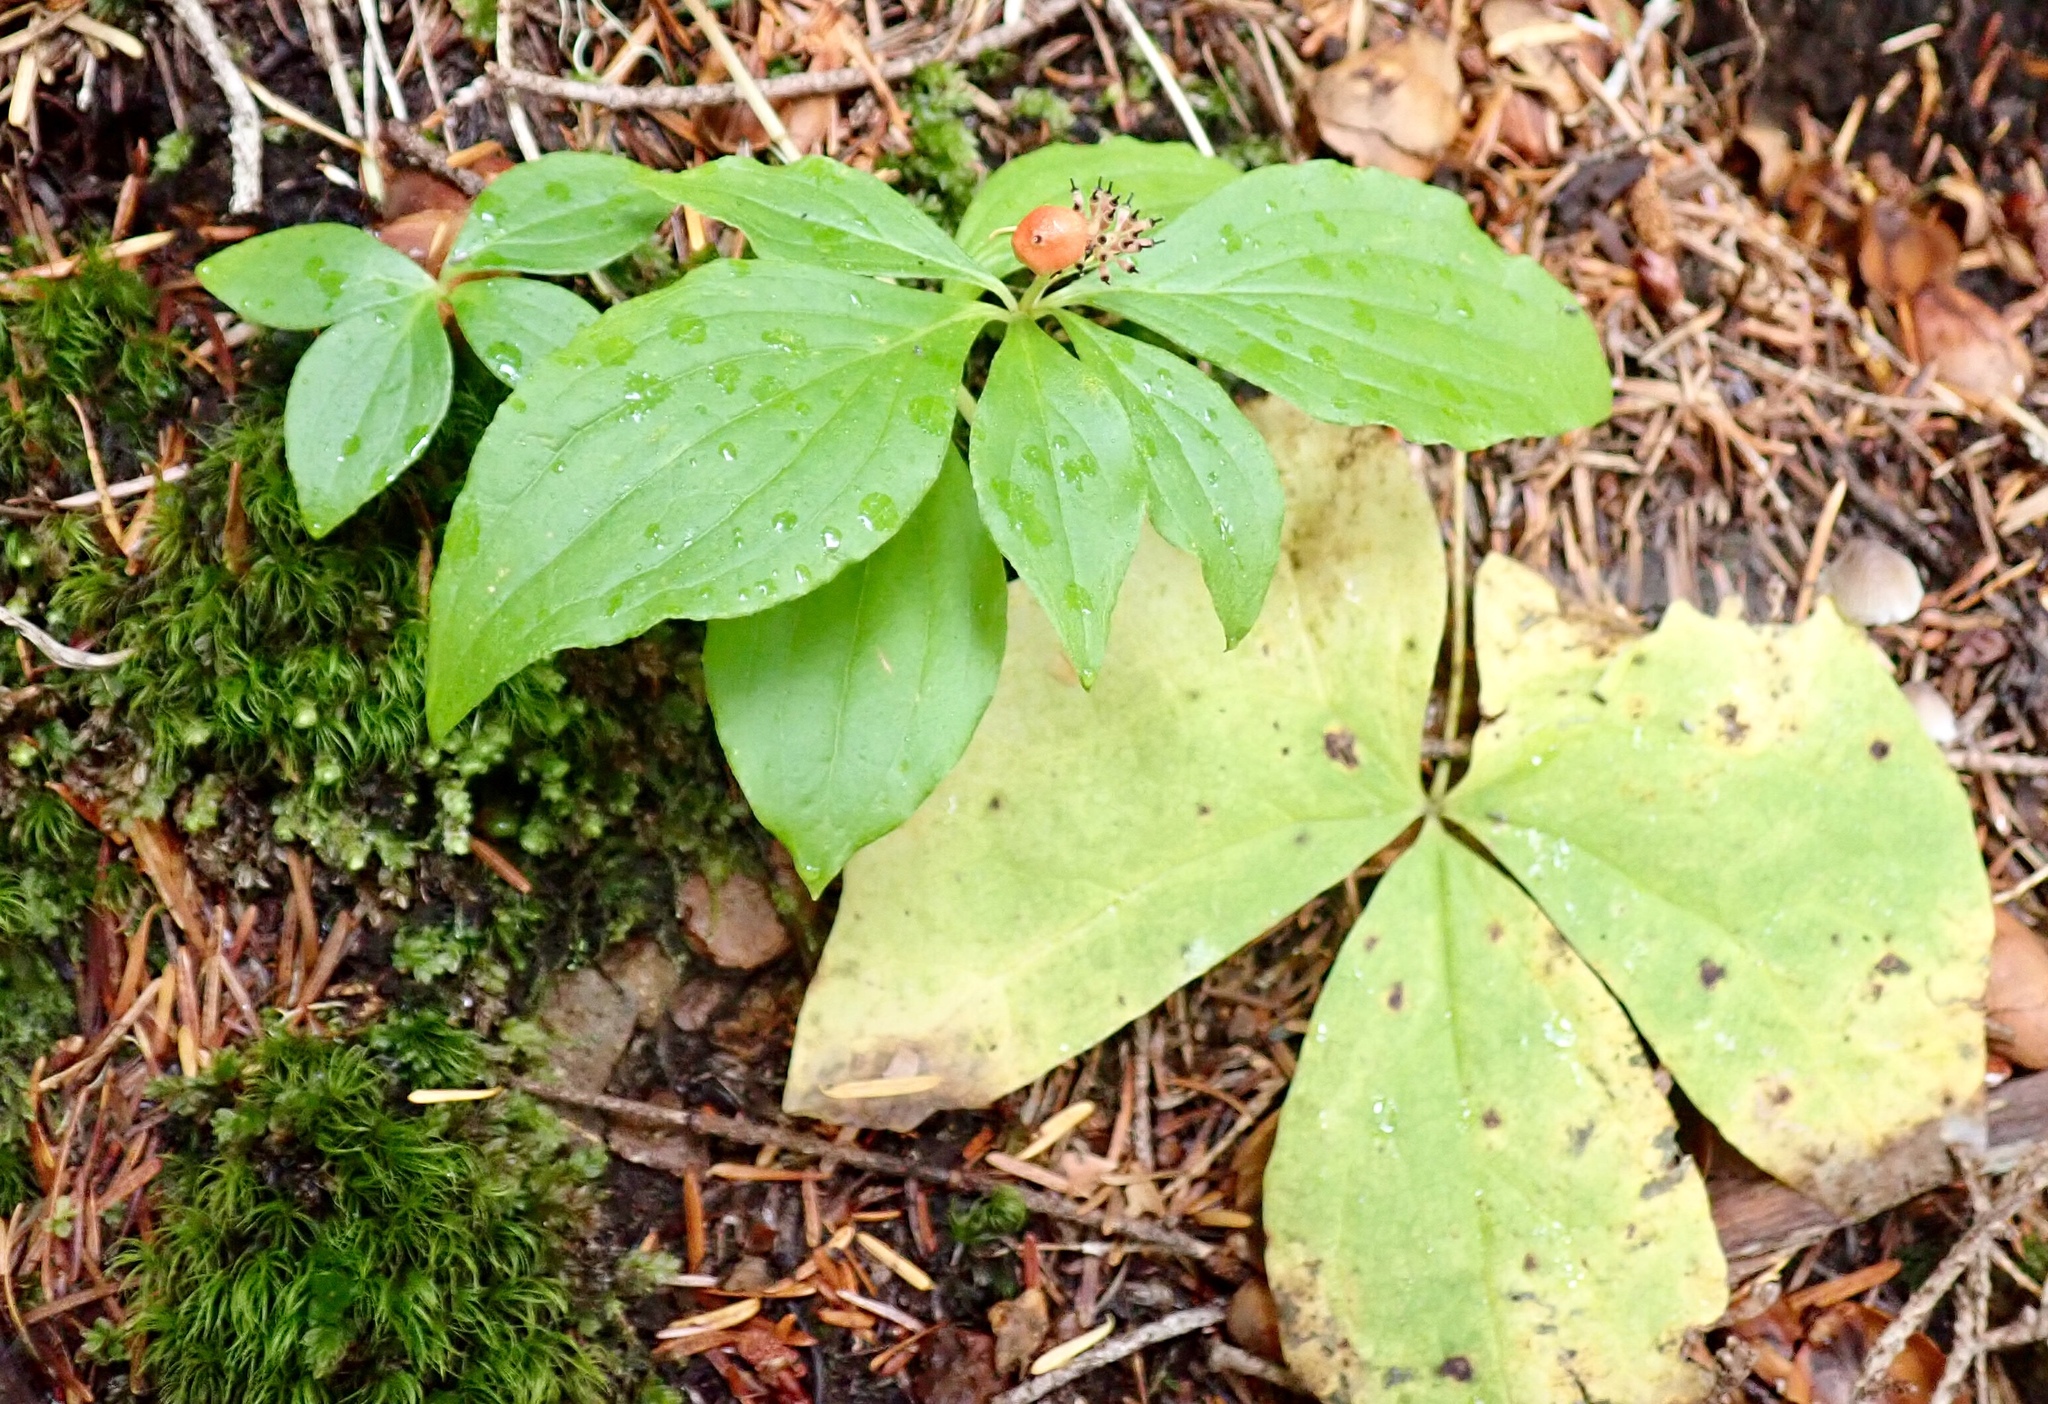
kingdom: Plantae
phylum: Tracheophyta
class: Magnoliopsida
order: Cornales
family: Cornaceae
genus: Cornus
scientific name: Cornus unalaschkensis
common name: Alaska bunchberry
